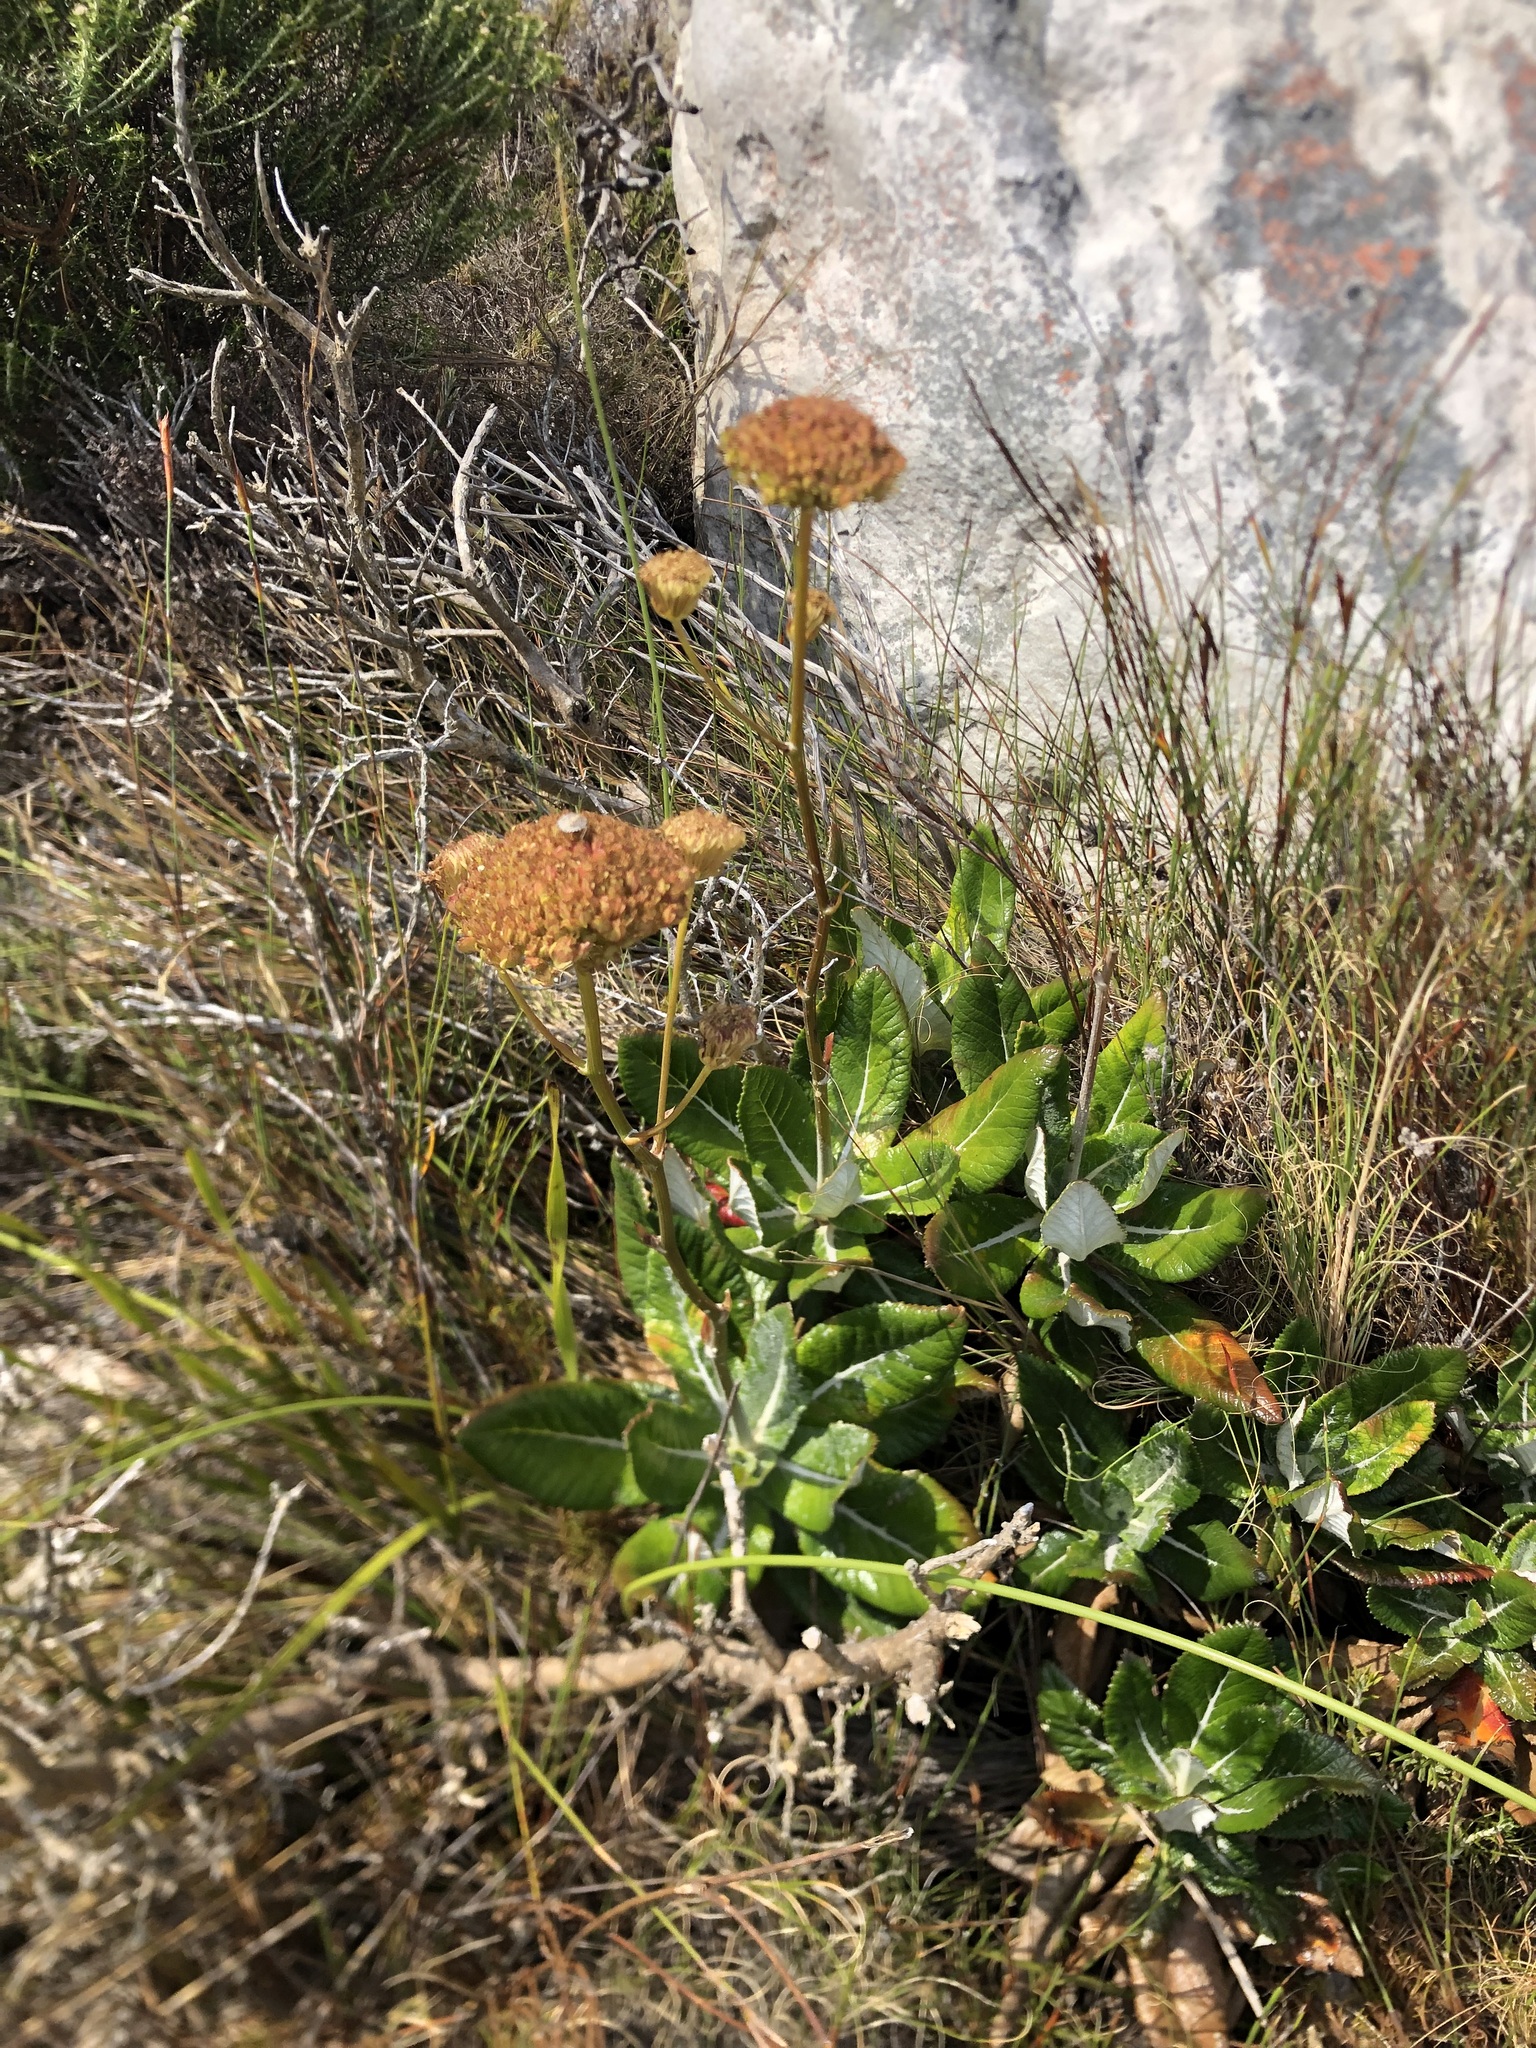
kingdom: Plantae
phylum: Tracheophyta
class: Magnoliopsida
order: Apiales
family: Apiaceae
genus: Hermas
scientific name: Hermas villosa
